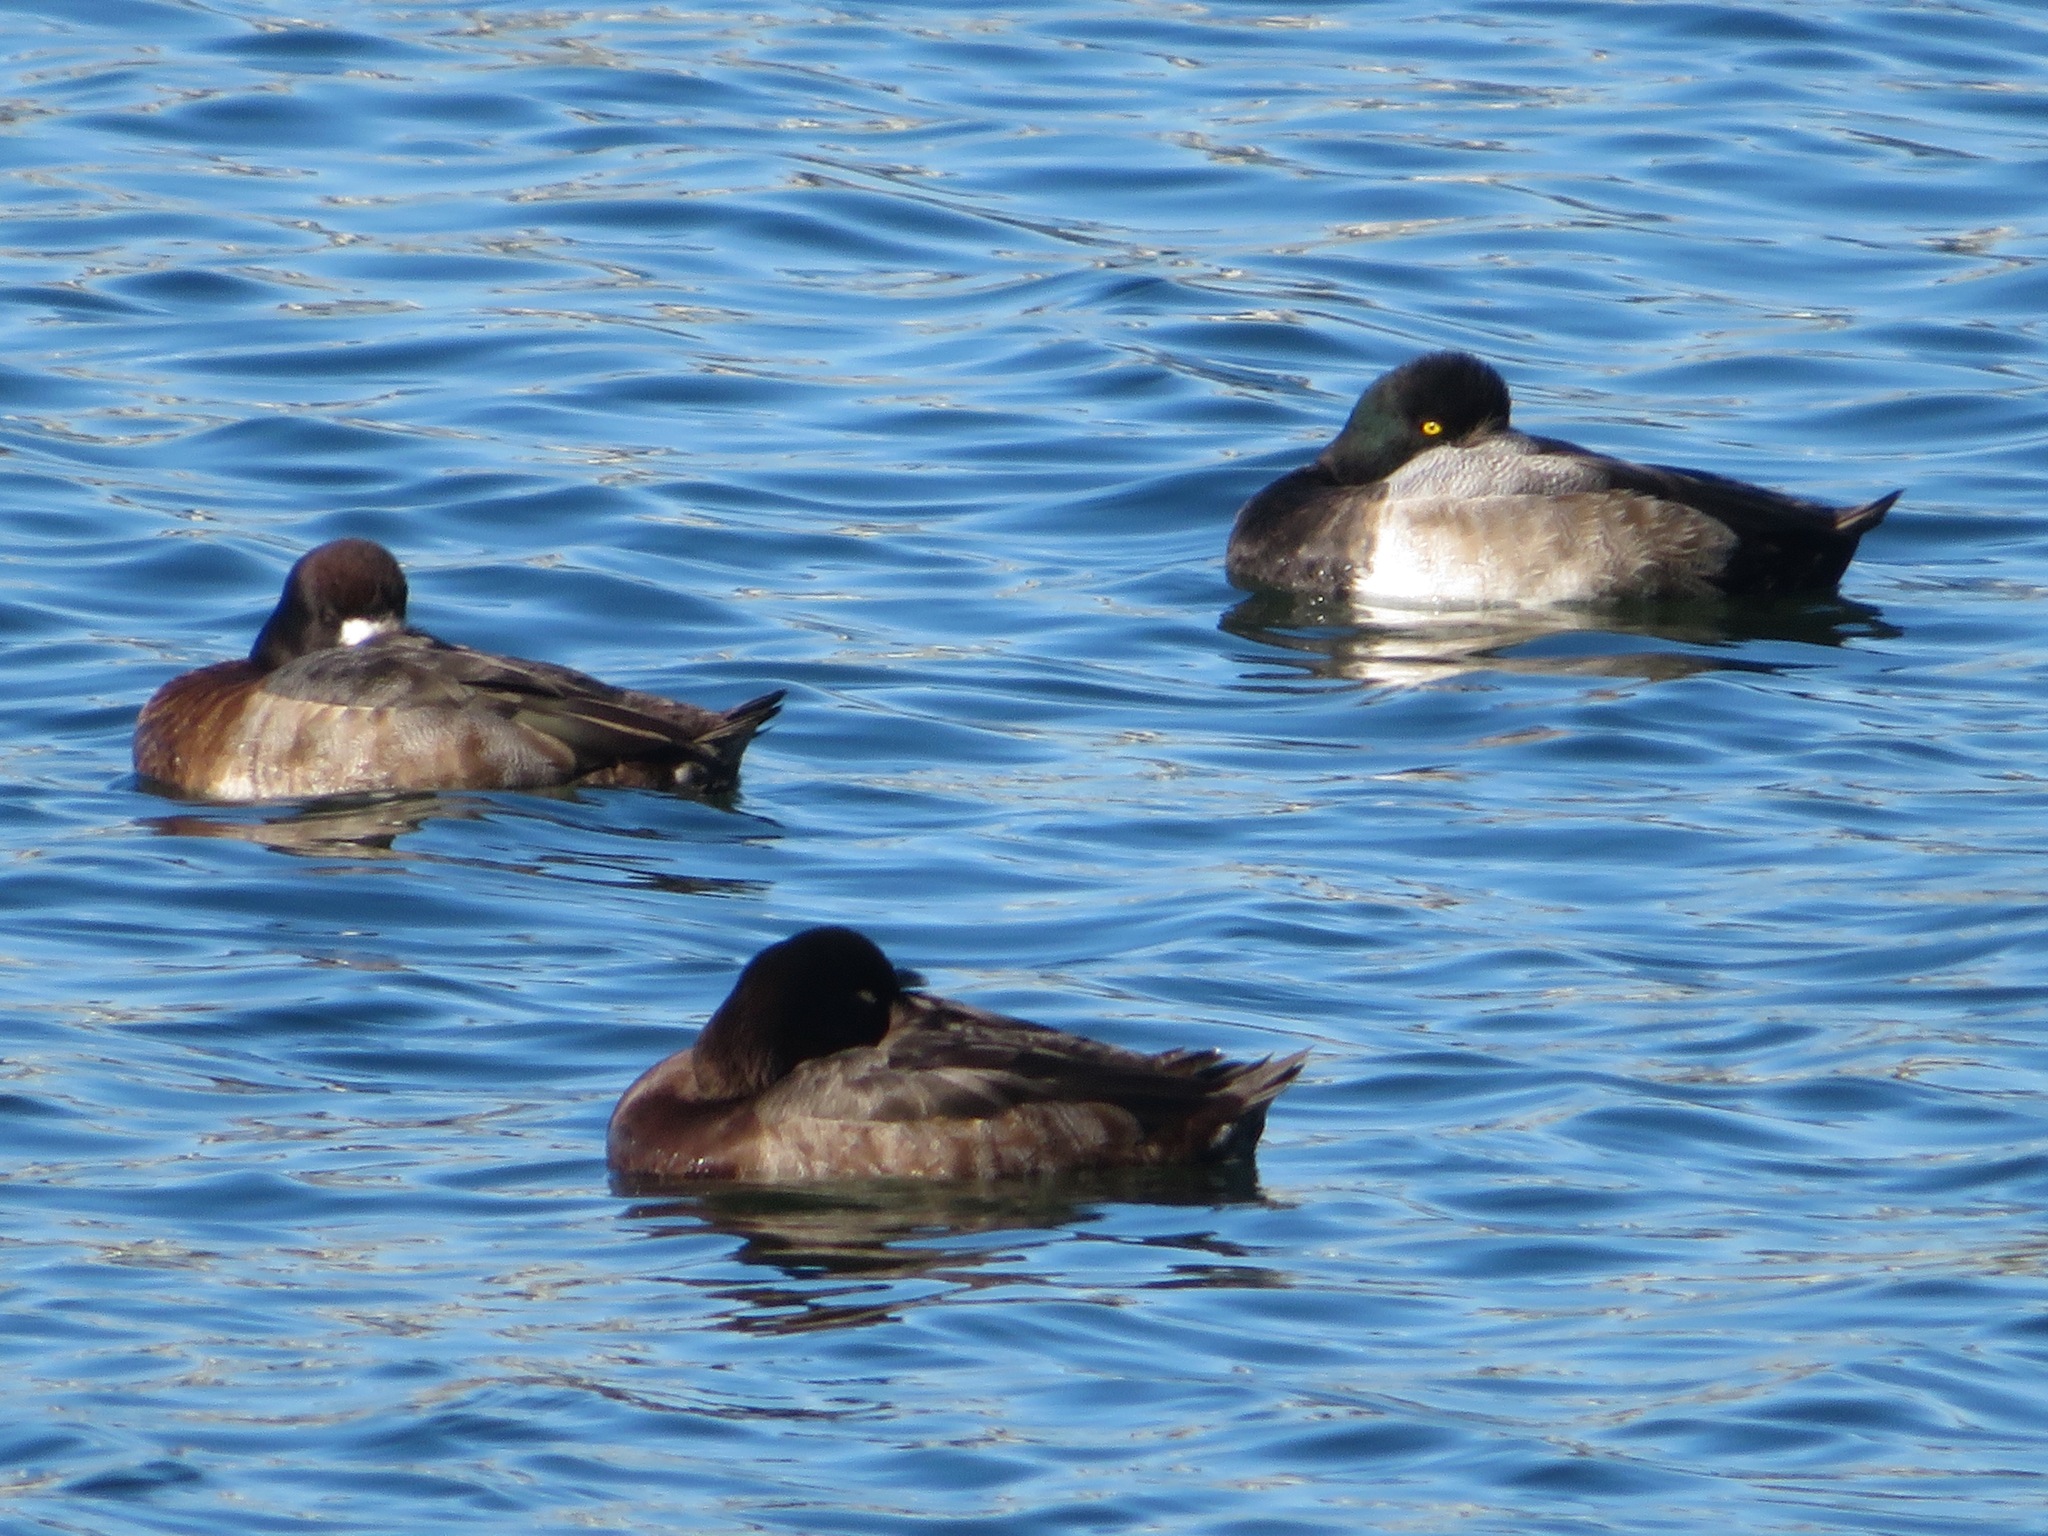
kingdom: Animalia
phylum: Chordata
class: Aves
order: Anseriformes
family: Anatidae
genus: Aythya
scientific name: Aythya marila
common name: Greater scaup
